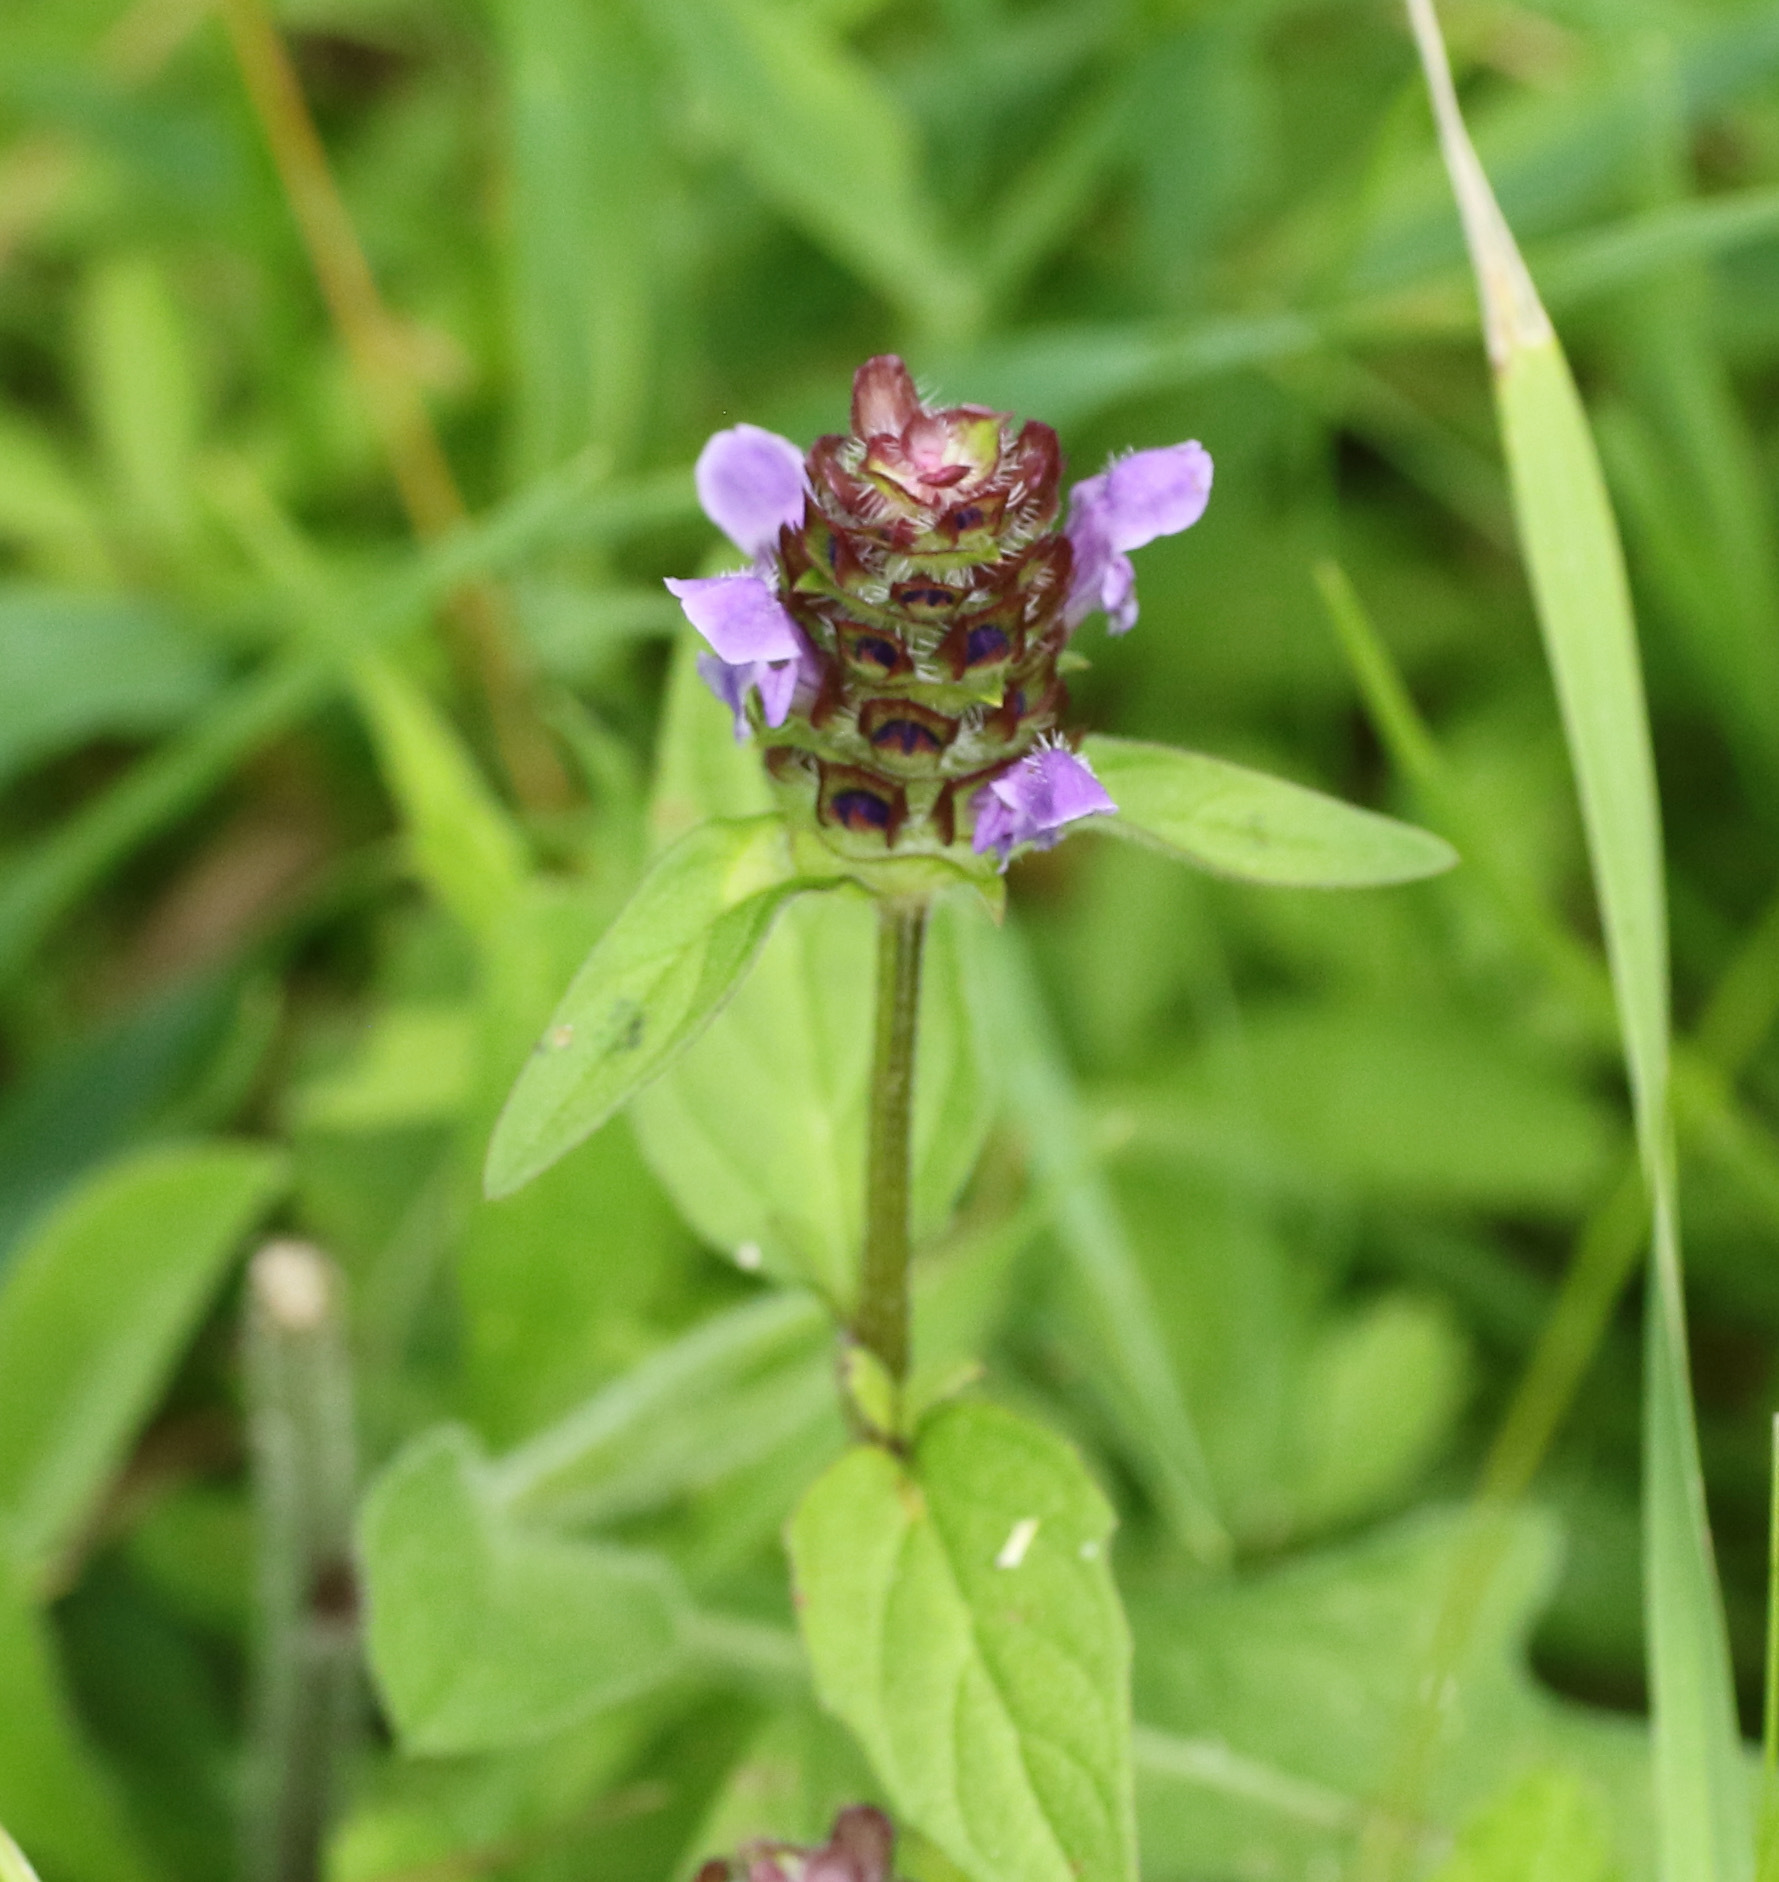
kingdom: Plantae
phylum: Tracheophyta
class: Magnoliopsida
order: Lamiales
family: Lamiaceae
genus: Prunella
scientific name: Prunella vulgaris
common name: Heal-all
